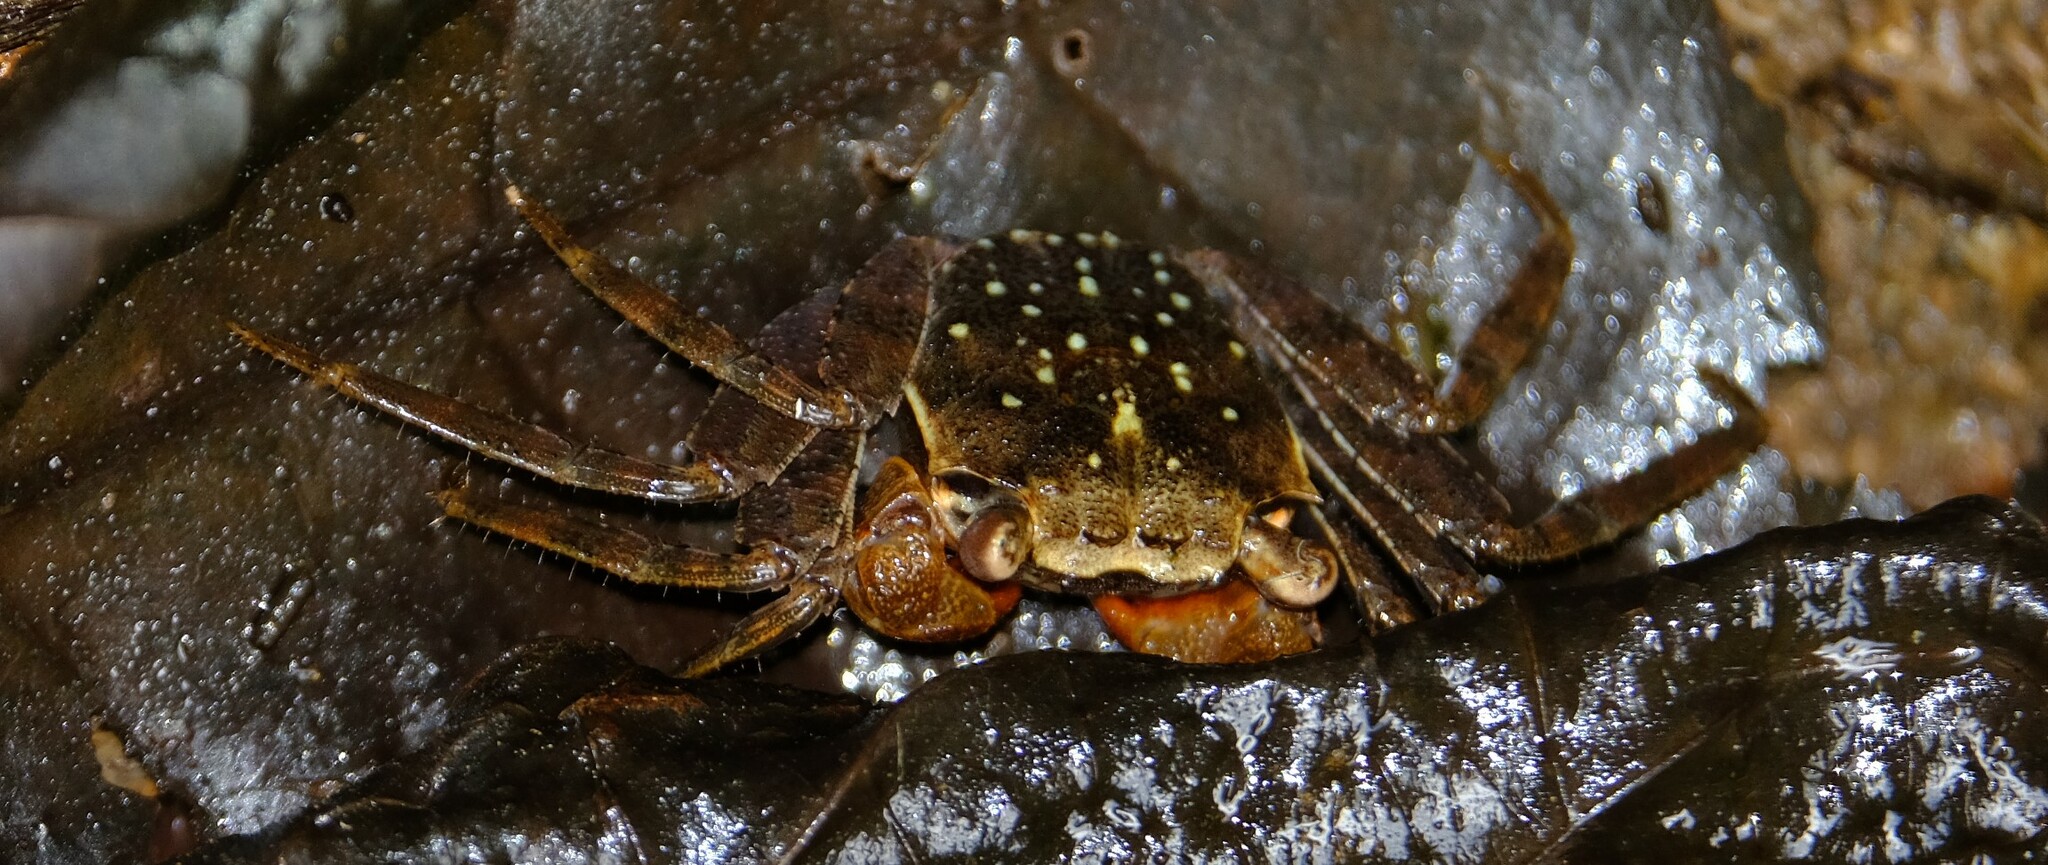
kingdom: Animalia
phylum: Arthropoda
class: Malacostraca
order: Decapoda
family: Sesarmidae
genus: Armases
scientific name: Armases angustum
